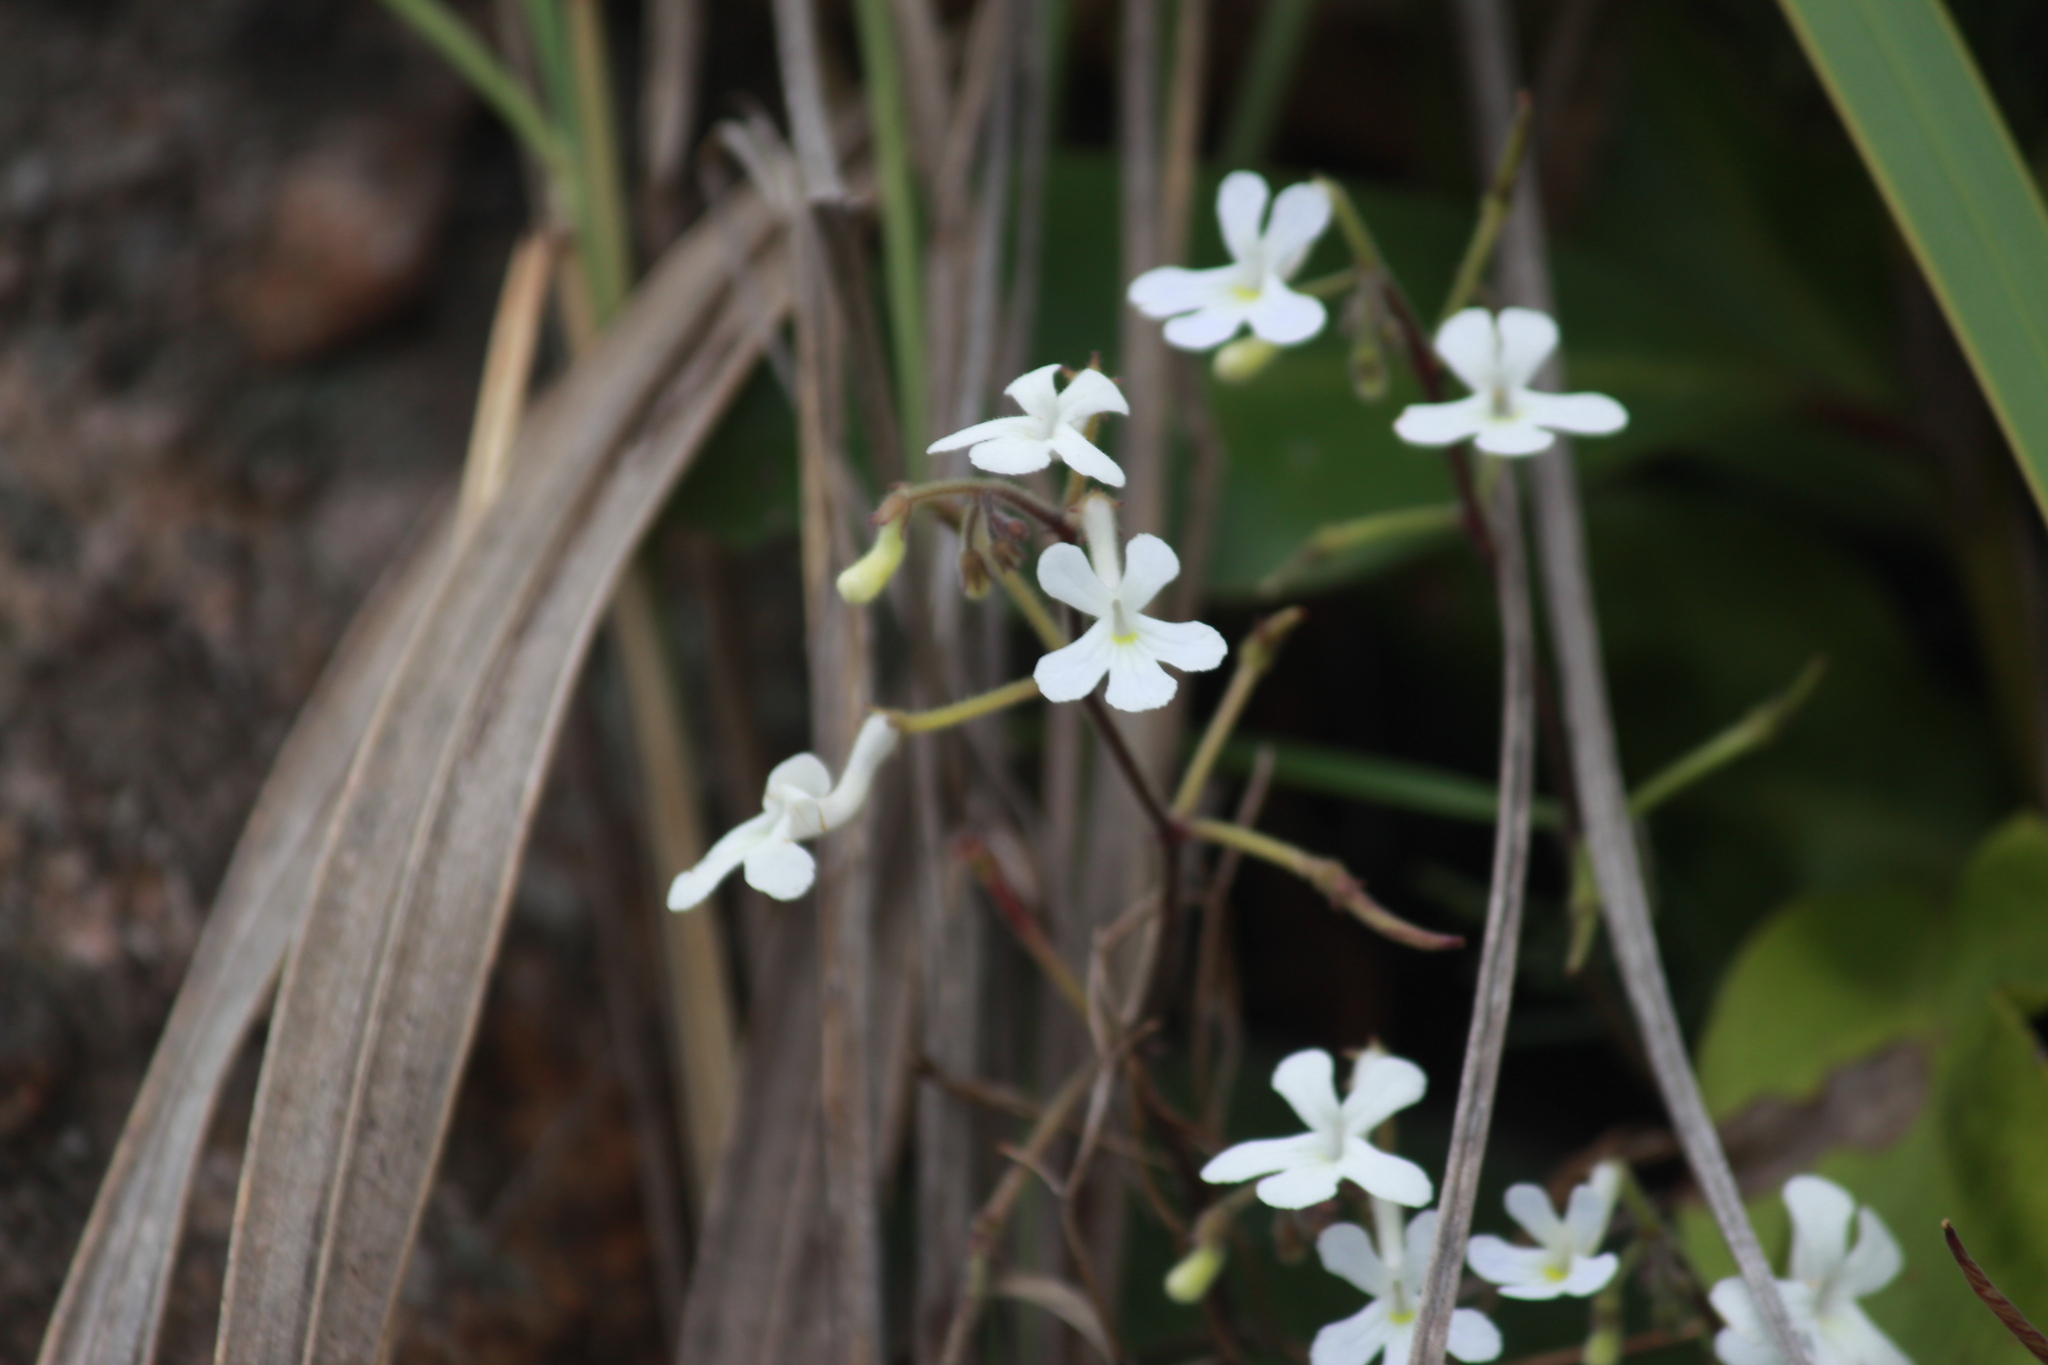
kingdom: Plantae
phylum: Tracheophyta
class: Magnoliopsida
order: Lamiales
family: Gesneriaceae
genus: Streptocarpus
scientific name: Streptocarpus prolixus
